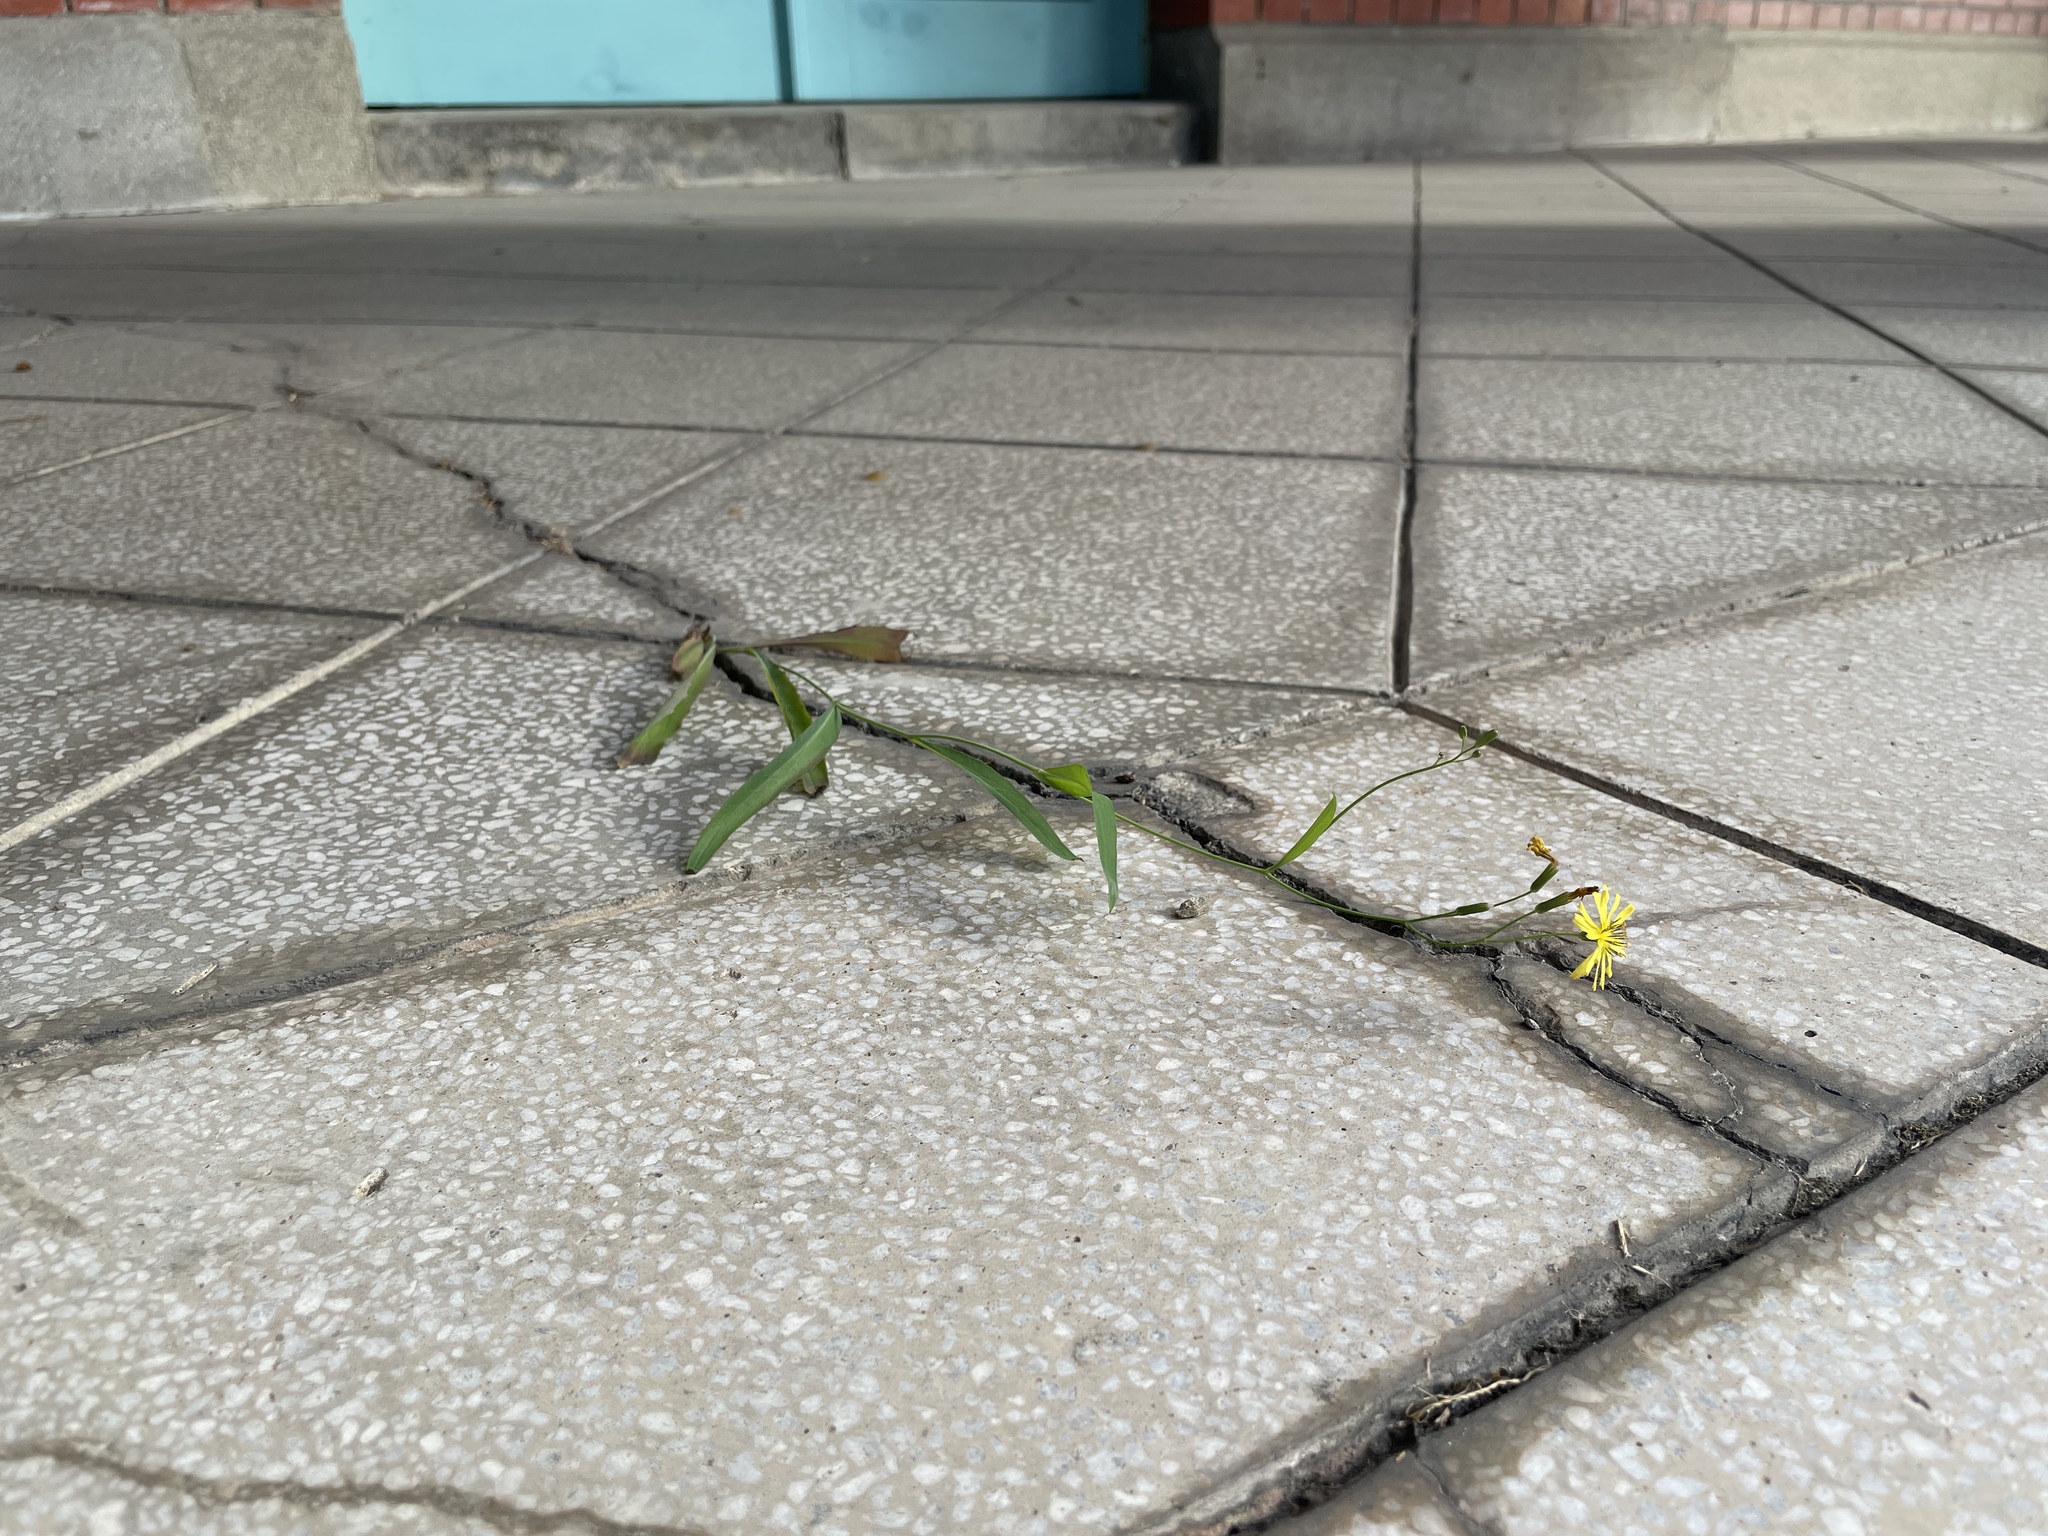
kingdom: Plantae
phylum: Tracheophyta
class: Magnoliopsida
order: Asterales
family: Asteraceae
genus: Ixeris
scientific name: Ixeris chinensis
